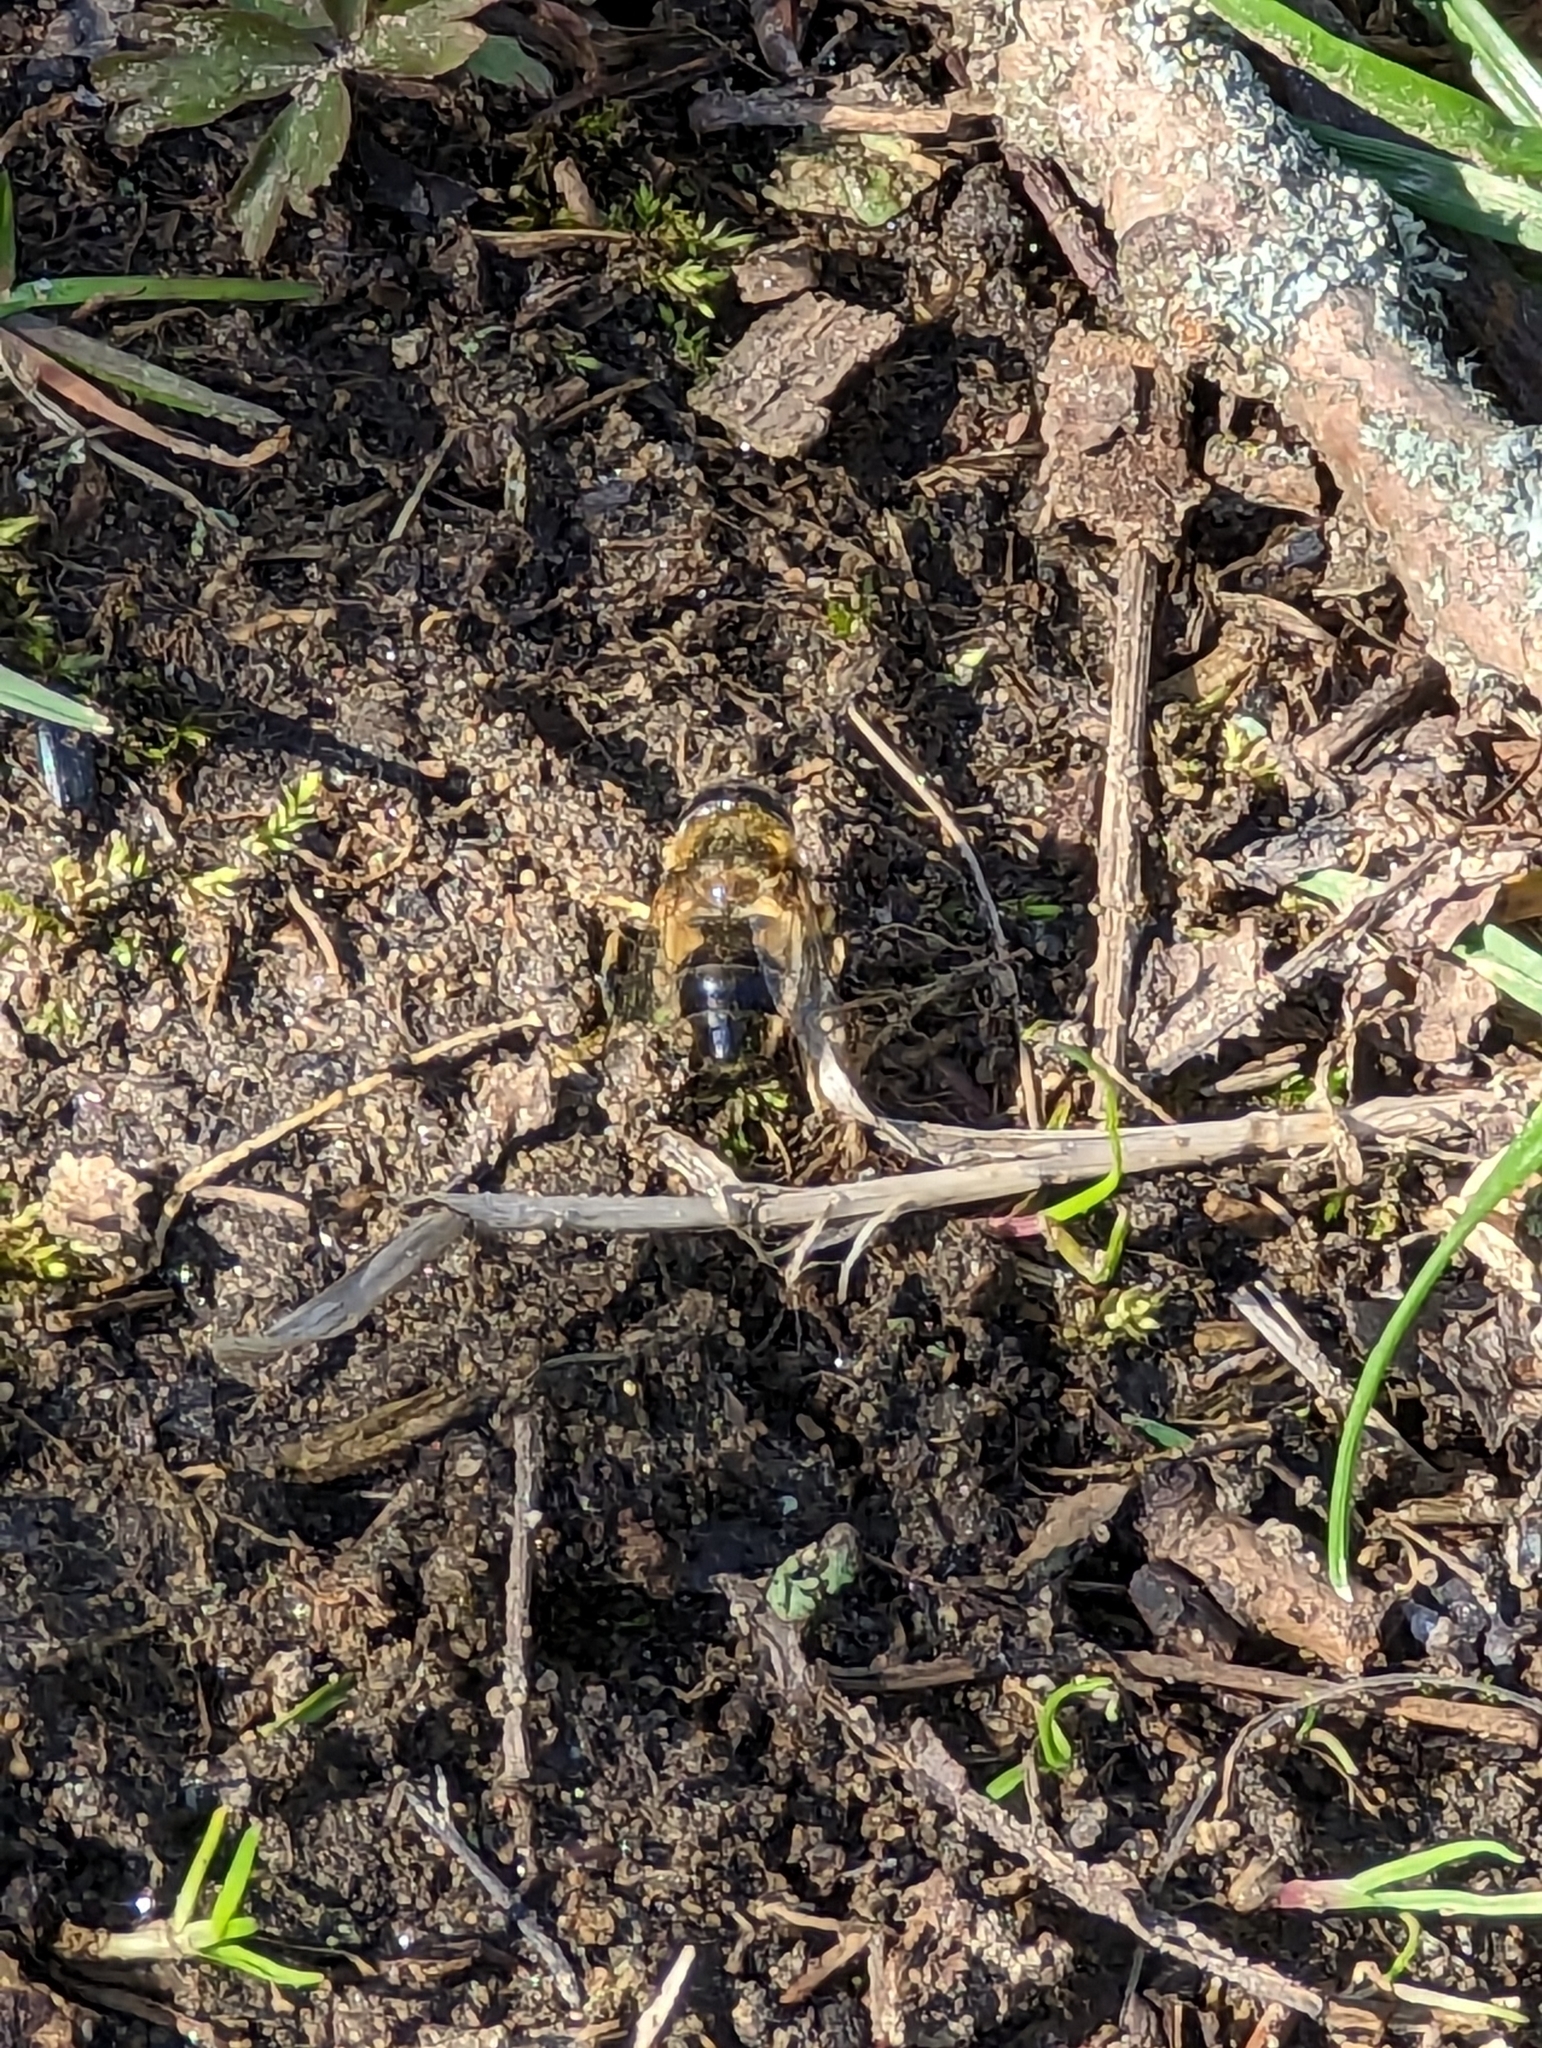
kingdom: Animalia
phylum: Arthropoda
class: Insecta
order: Diptera
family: Syrphidae
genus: Eoseristalis
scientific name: Eoseristalis
